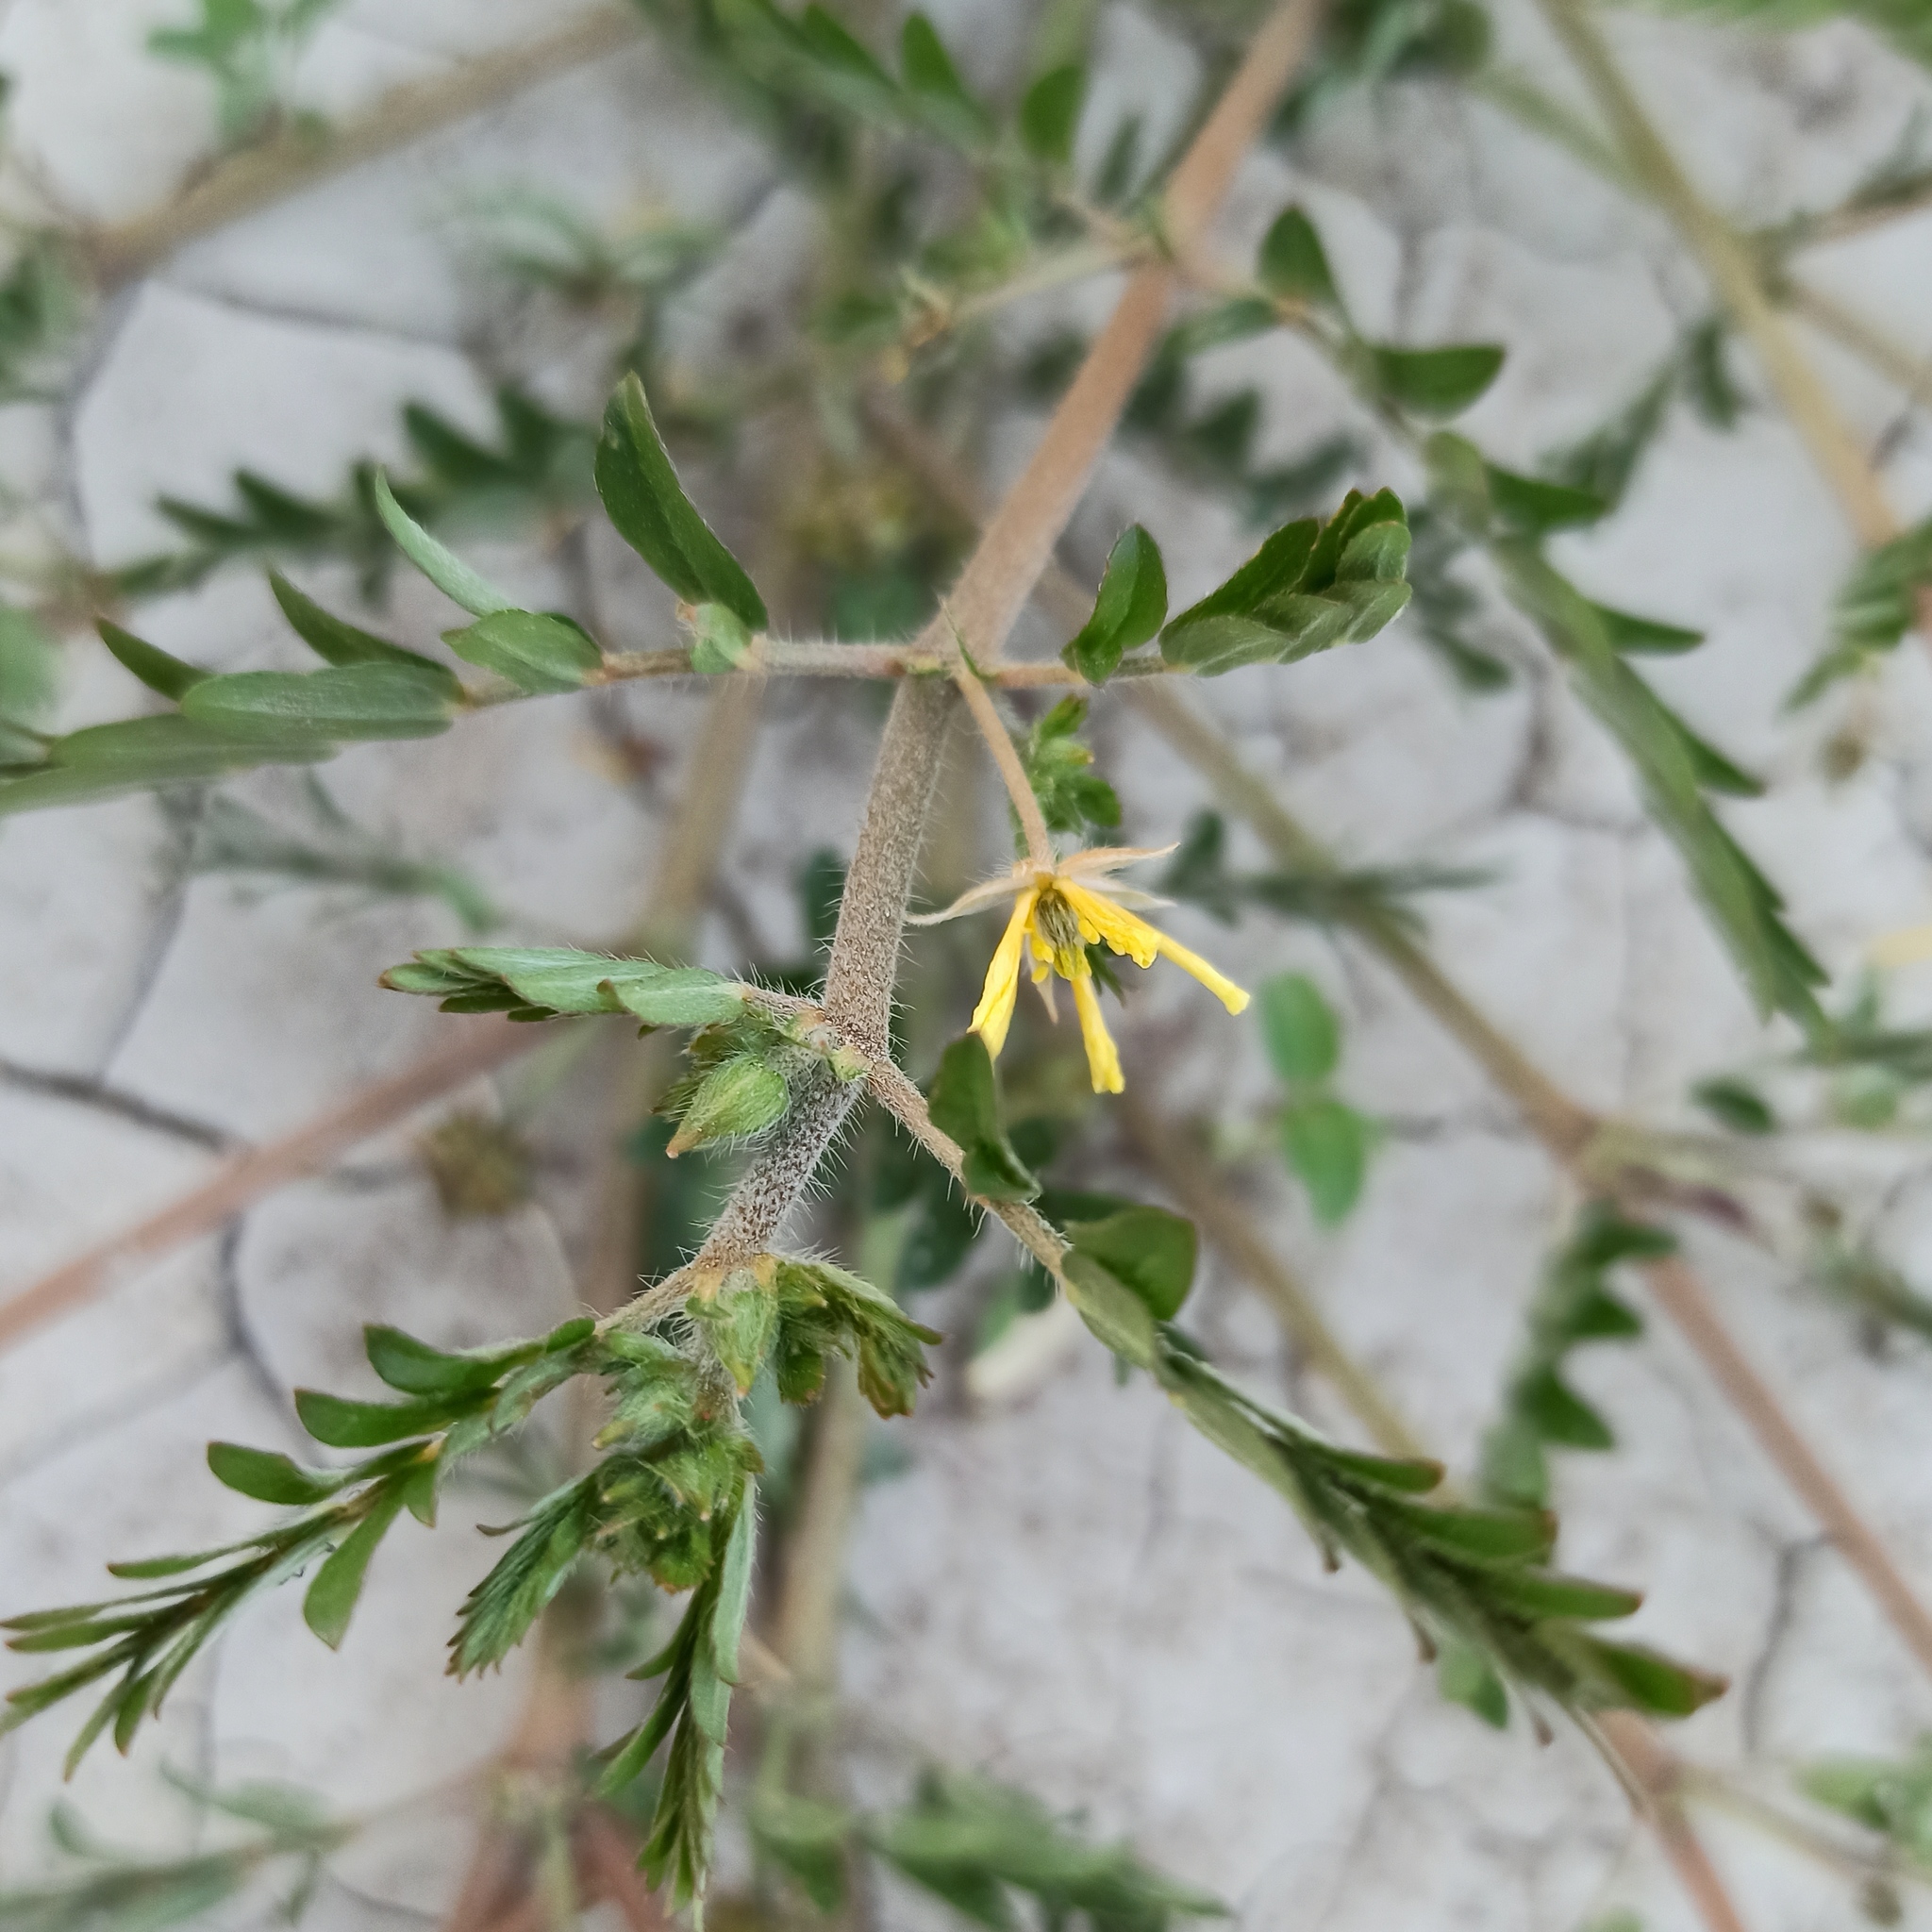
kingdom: Plantae
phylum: Tracheophyta
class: Magnoliopsida
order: Zygophyllales
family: Zygophyllaceae
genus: Tribulus
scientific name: Tribulus terrestris
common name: Puncturevine
